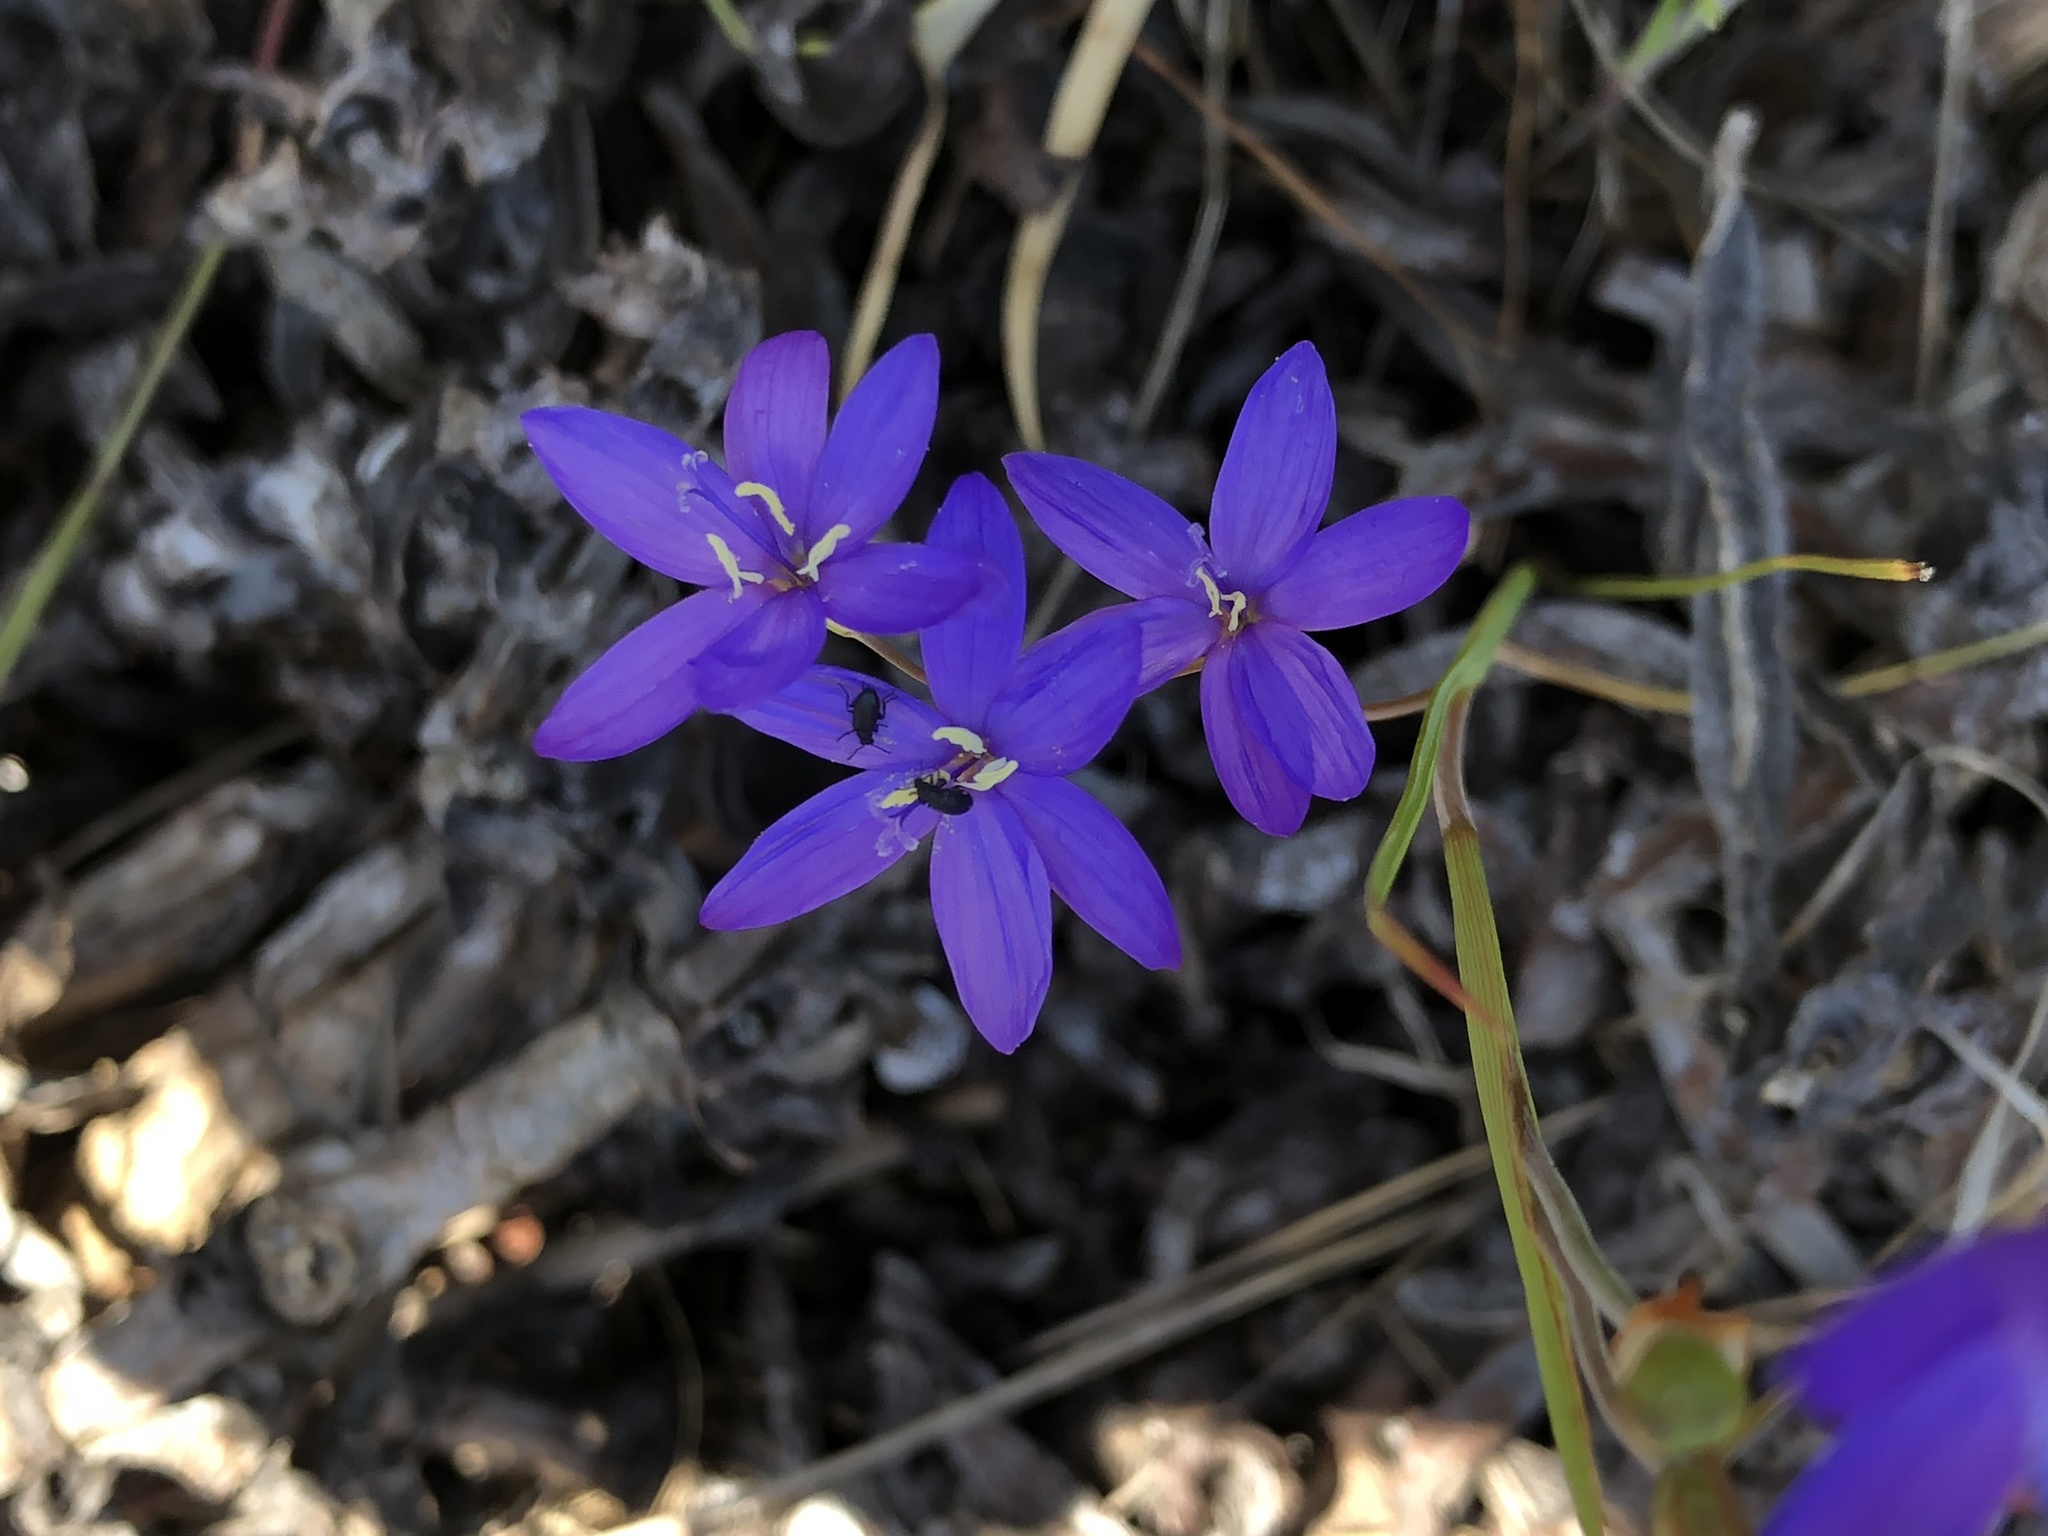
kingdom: Plantae
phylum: Tracheophyta
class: Liliopsida
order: Asparagales
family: Iridaceae
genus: Geissorhiza
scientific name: Geissorhiza aspera
